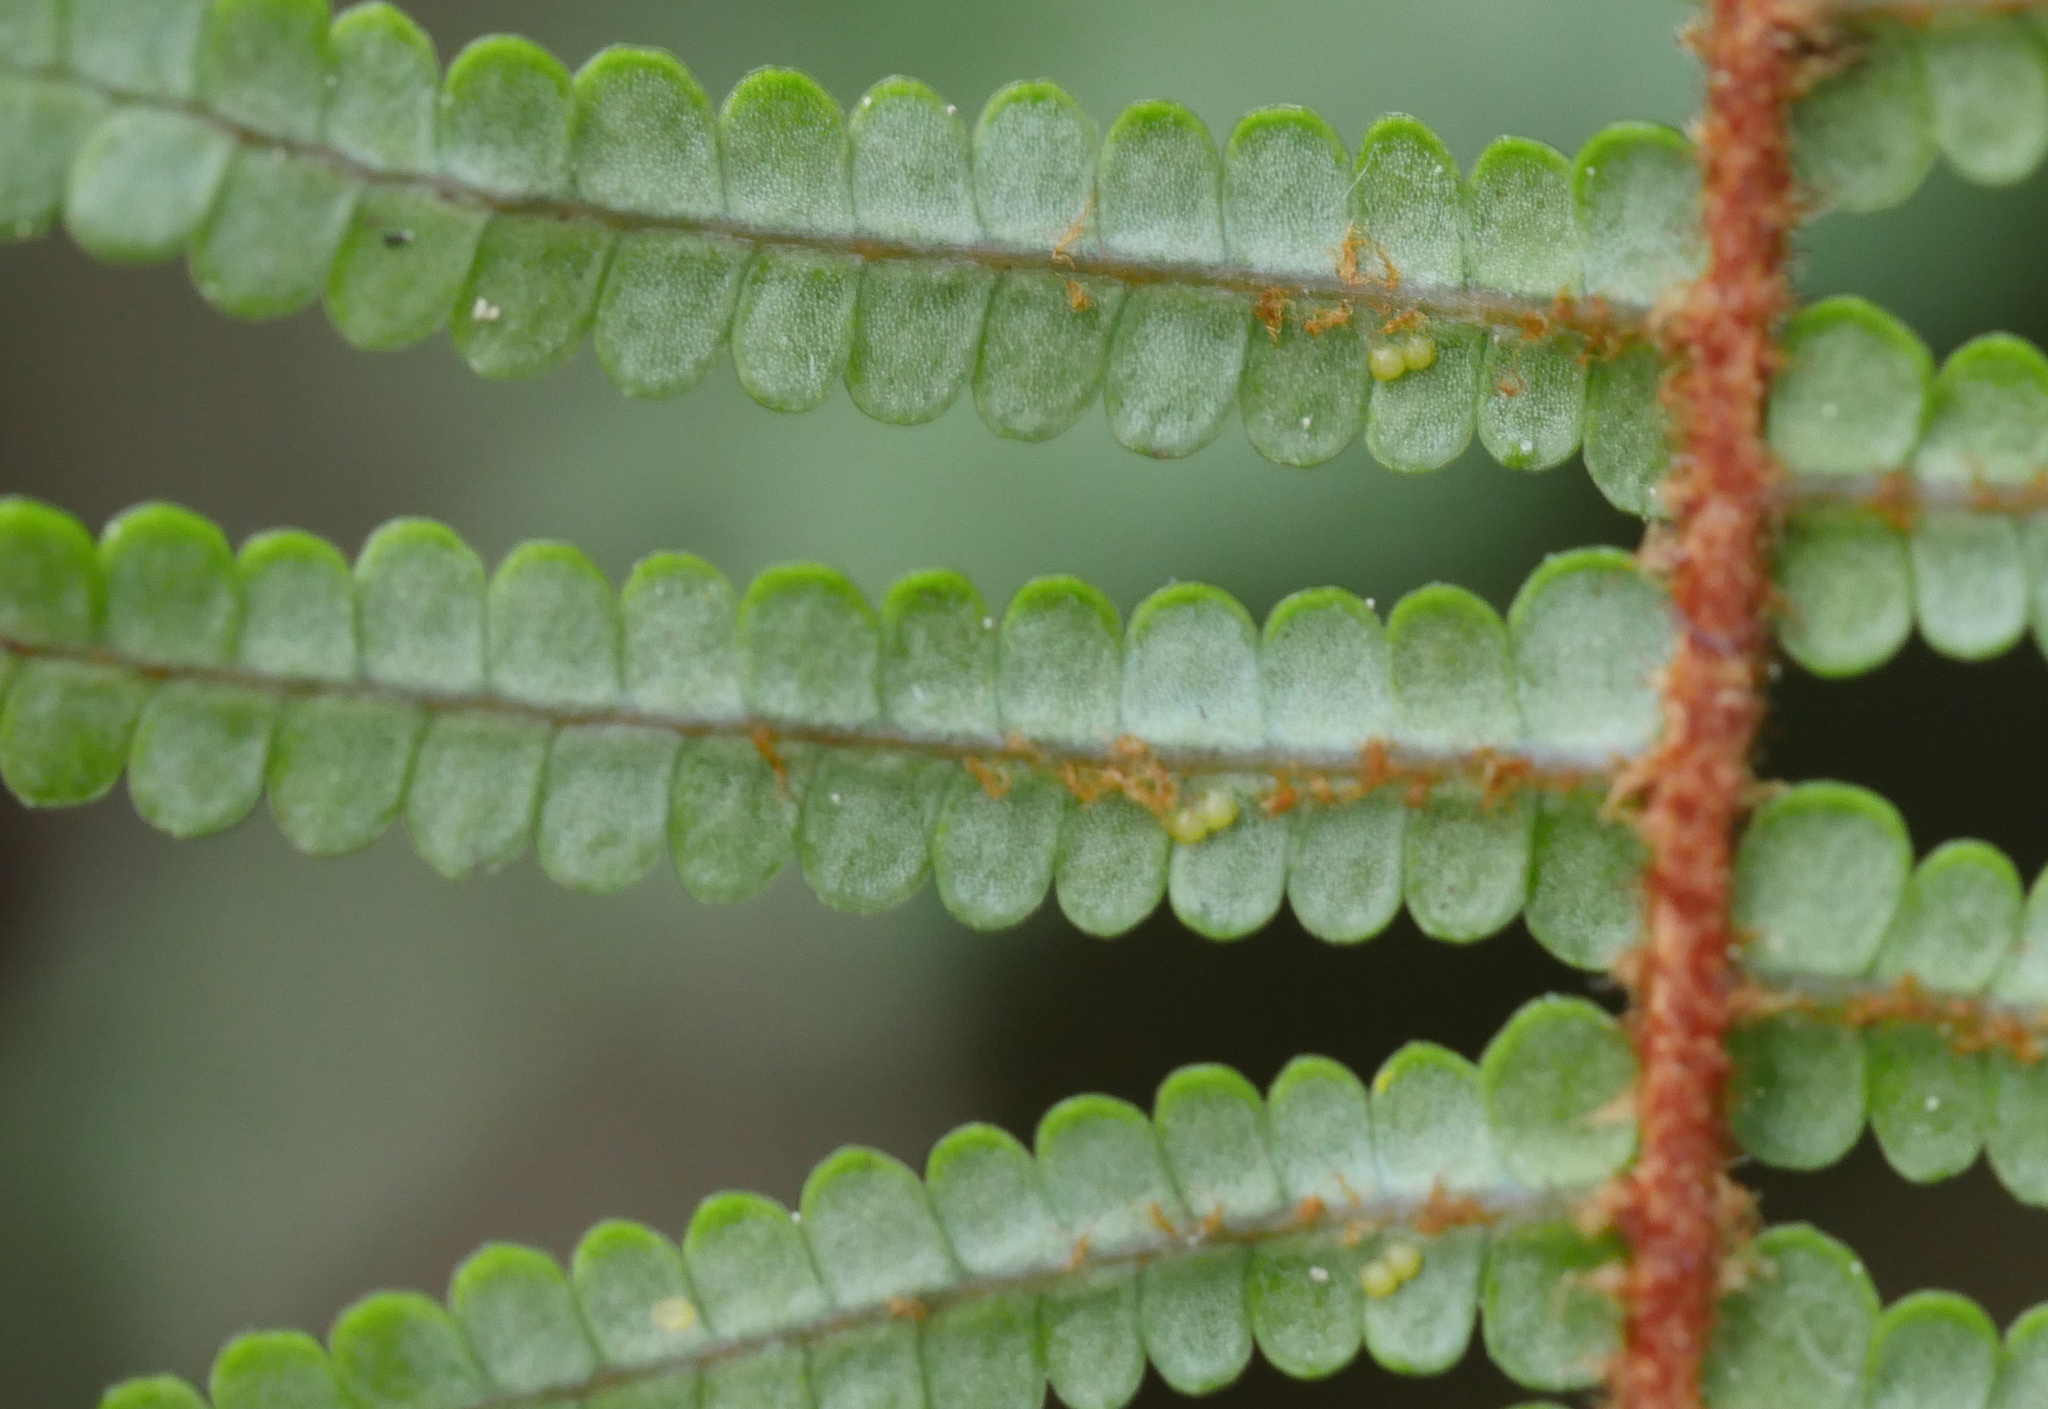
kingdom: Plantae
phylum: Tracheophyta
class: Polypodiopsida
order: Gleicheniales
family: Gleicheniaceae
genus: Gleichenia
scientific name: Gleichenia punctulata
